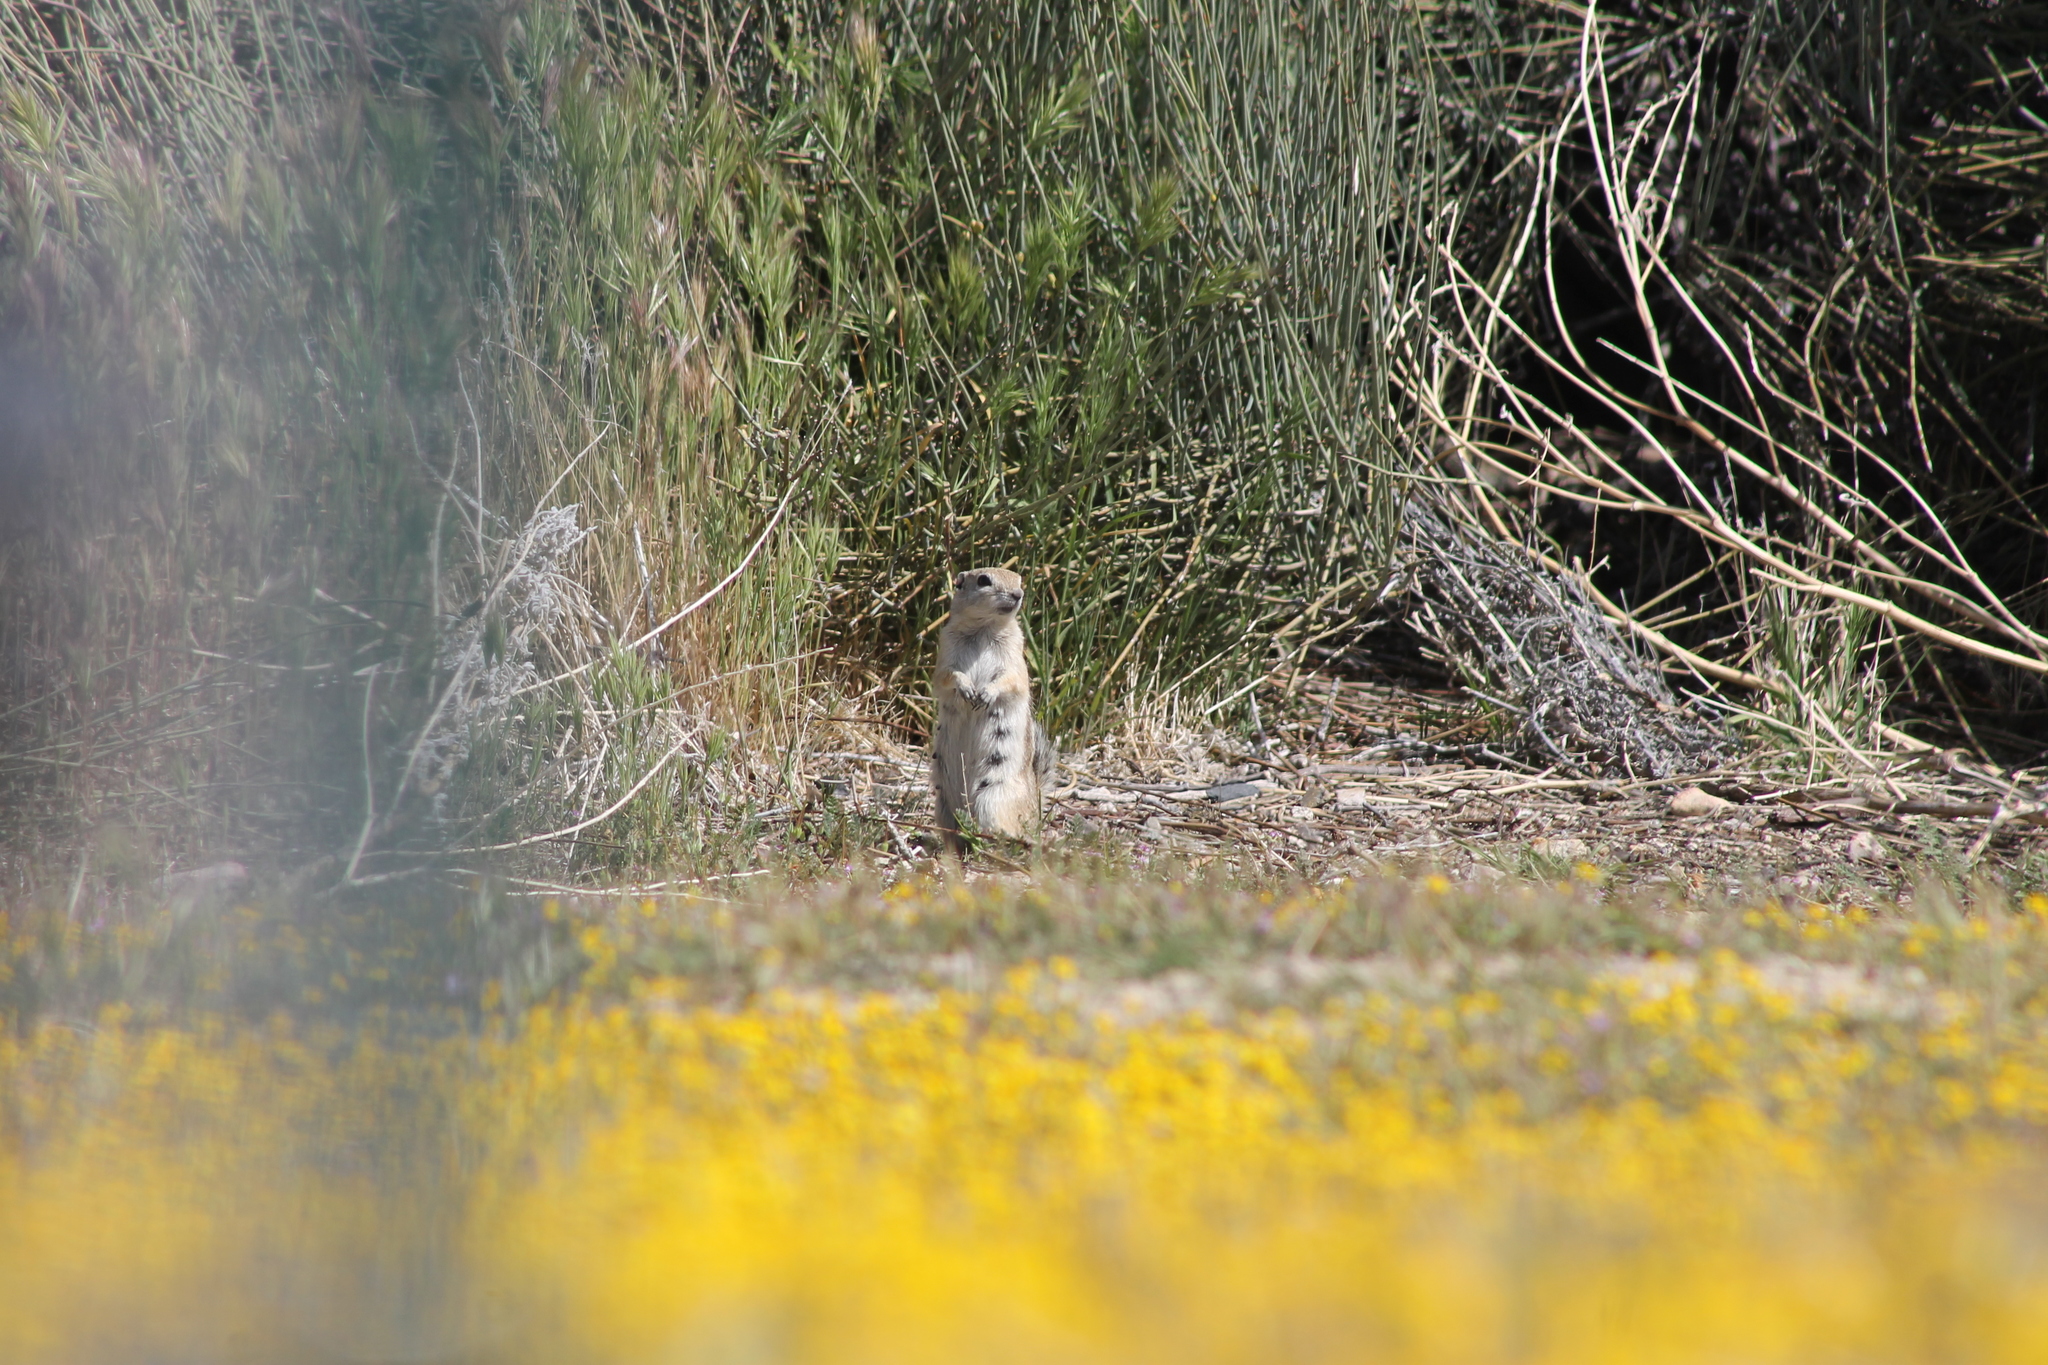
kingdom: Animalia
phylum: Chordata
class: Mammalia
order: Rodentia
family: Sciuridae
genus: Ammospermophilus
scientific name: Ammospermophilus nelsoni
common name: Nelson's antelope squirrel
